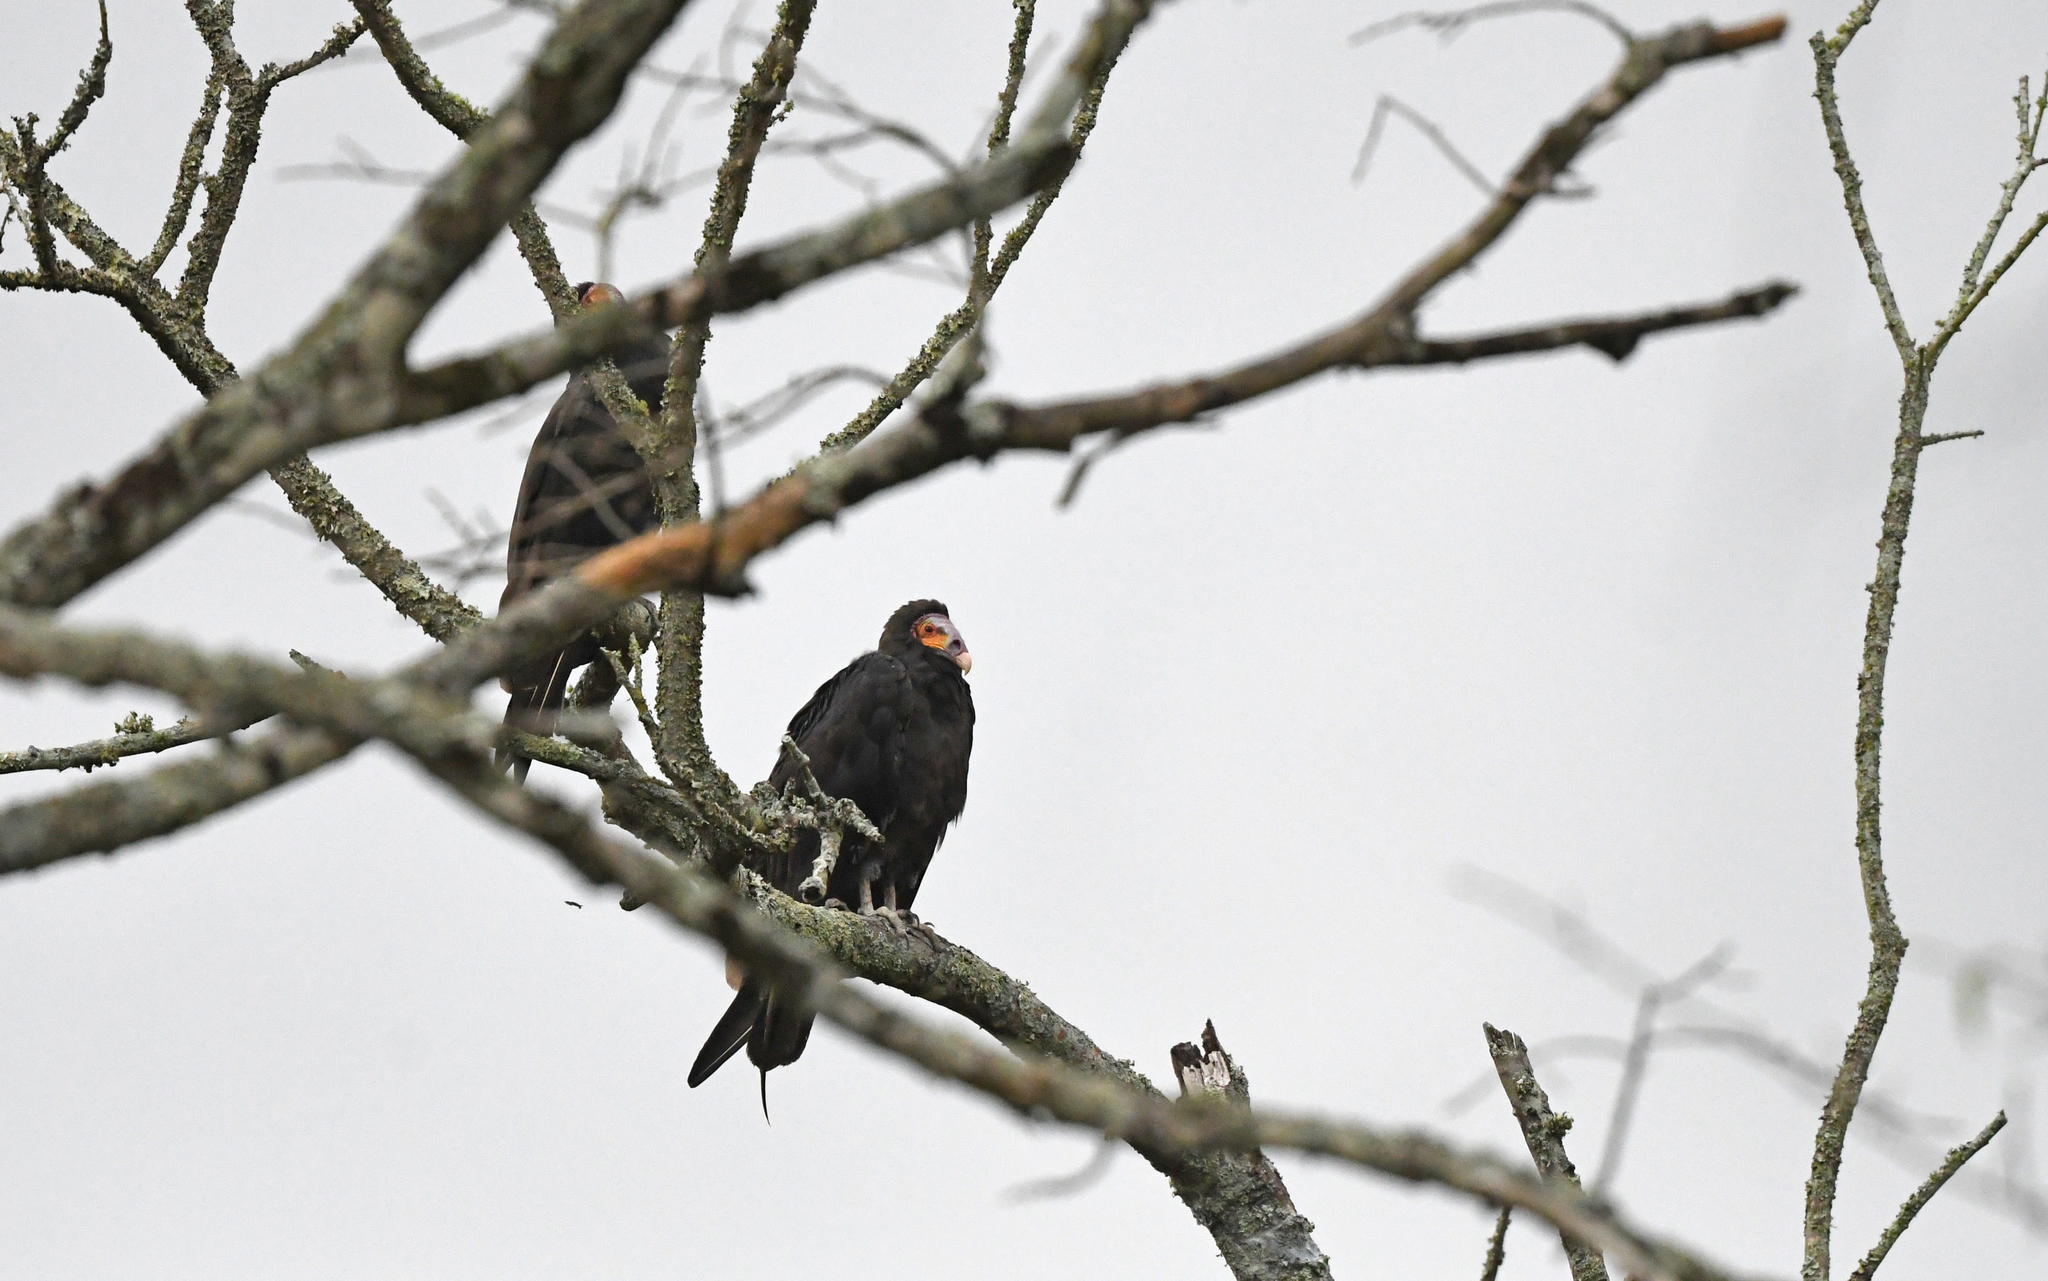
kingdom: Animalia
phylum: Chordata
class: Aves
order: Accipitriformes
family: Cathartidae
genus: Cathartes
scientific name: Cathartes burrovianus
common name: Lesser yellow-headed vulture
